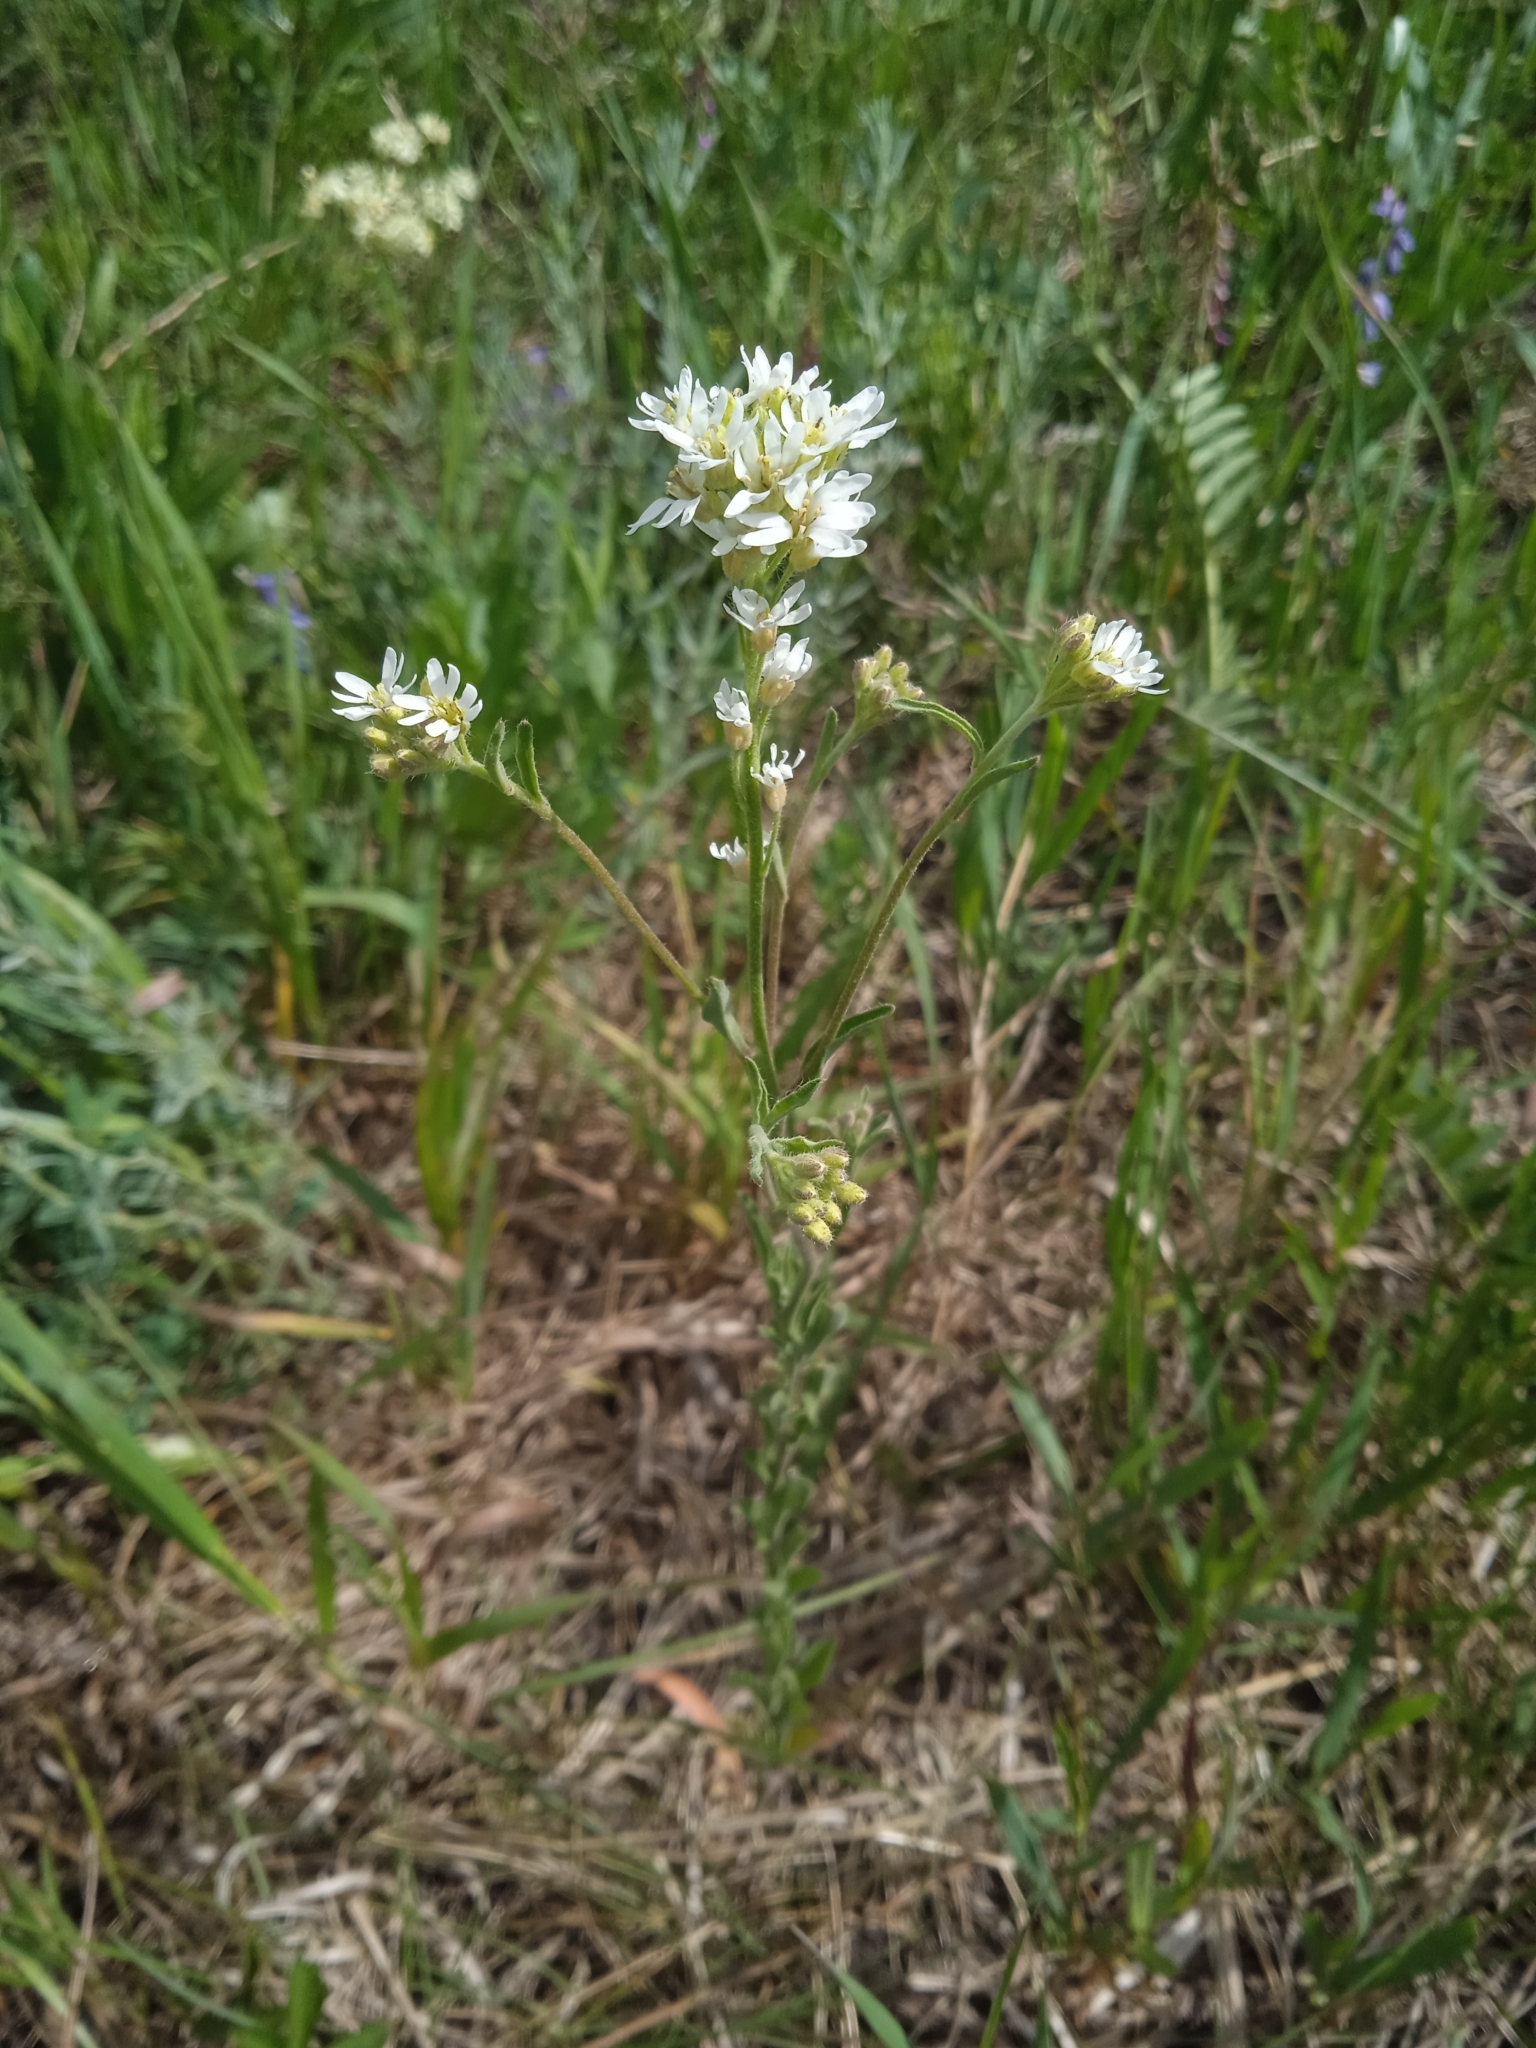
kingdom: Plantae
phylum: Tracheophyta
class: Magnoliopsida
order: Brassicales
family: Brassicaceae
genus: Berteroa
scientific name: Berteroa incana
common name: Hoary alison
